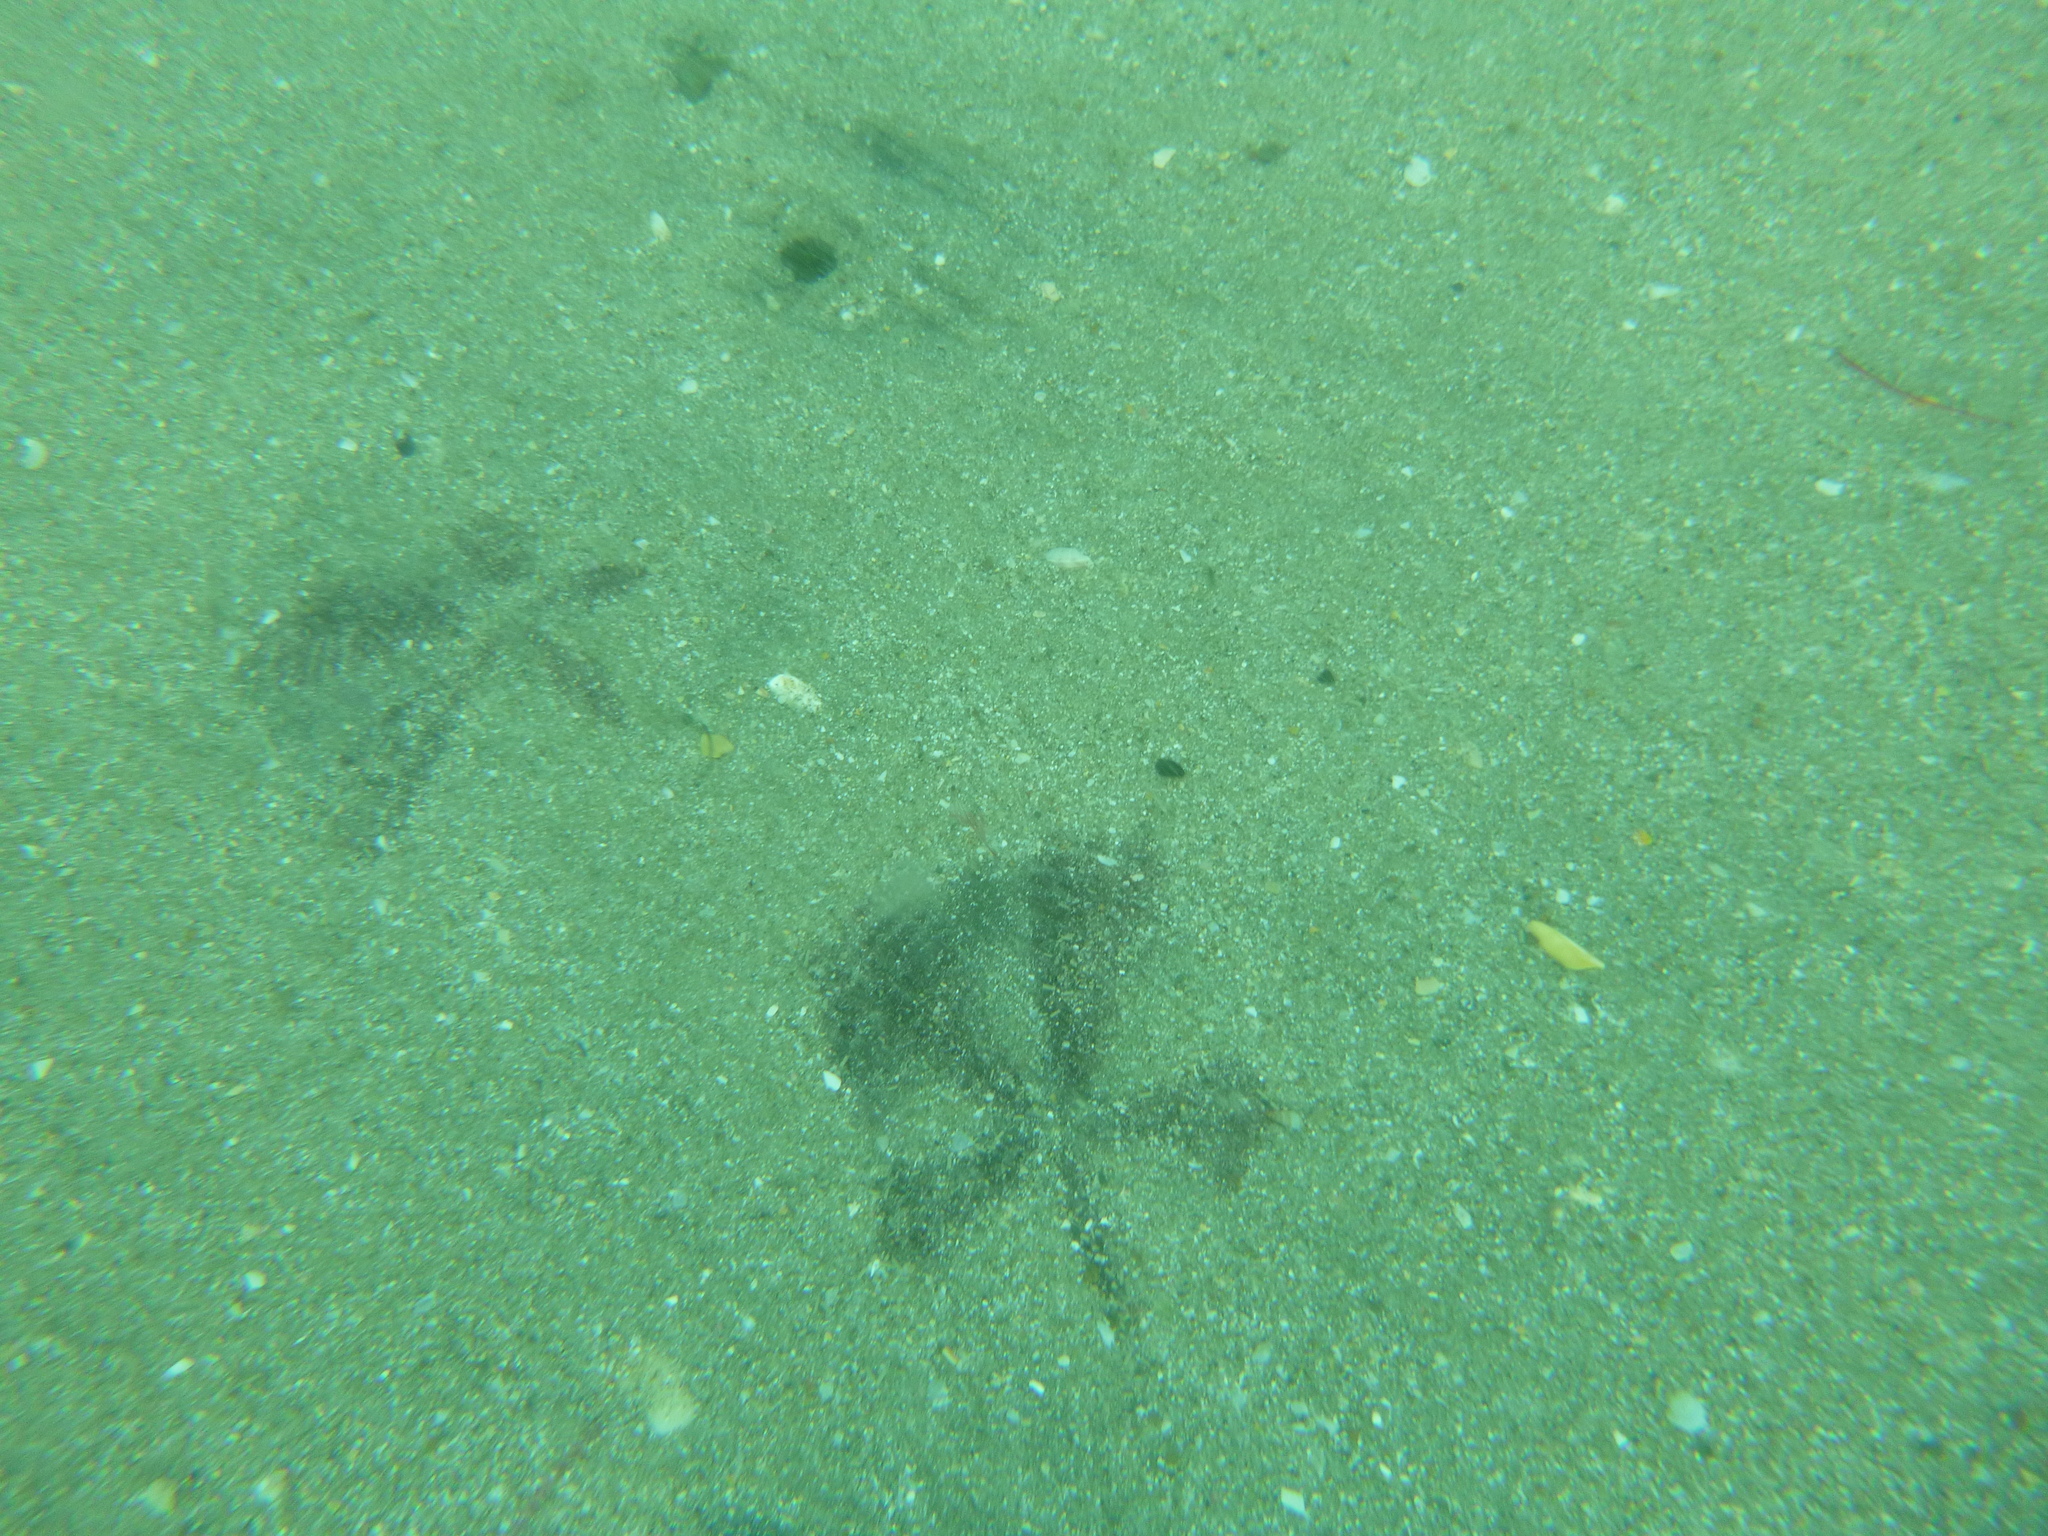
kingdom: Animalia
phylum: Echinodermata
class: Echinoidea
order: Clypeasteroida
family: Clypeasteridae
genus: Fellaster
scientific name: Fellaster zelandiae
